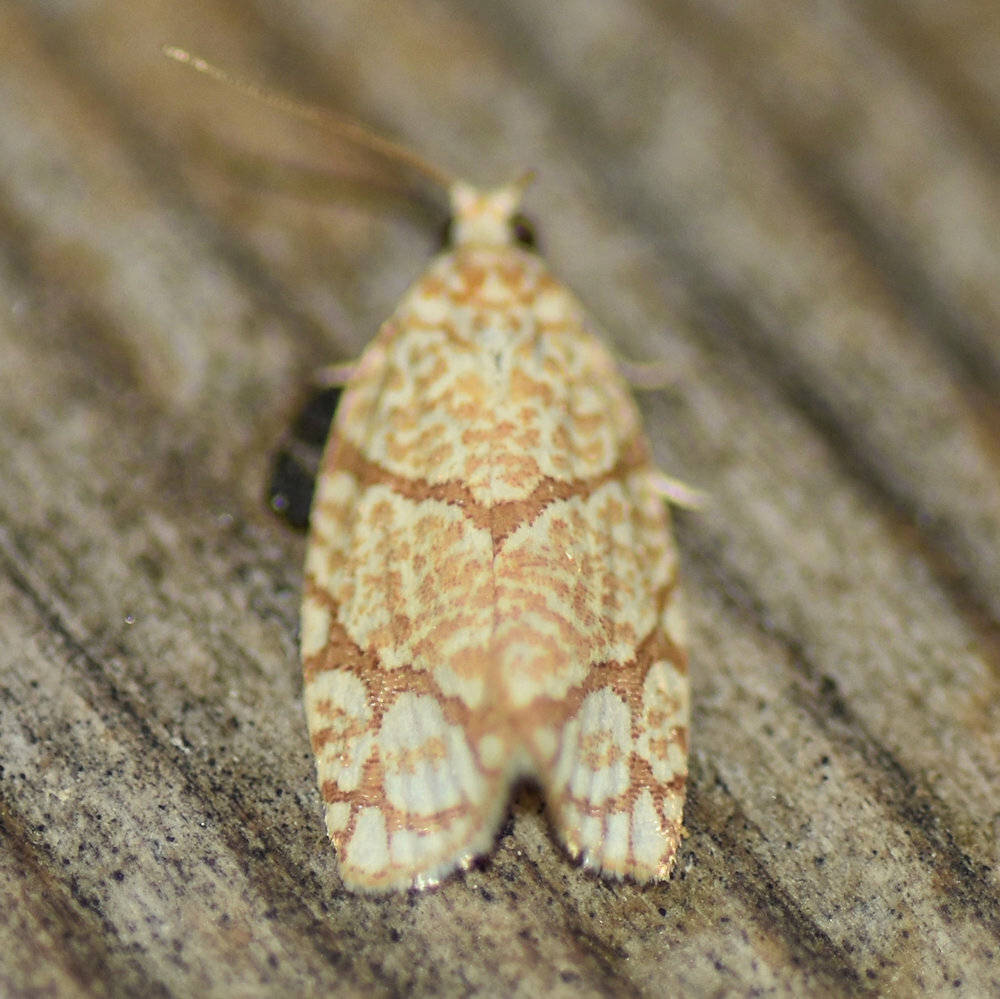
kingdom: Animalia
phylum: Arthropoda
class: Insecta
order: Lepidoptera
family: Tortricidae
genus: Argyrotaenia
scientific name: Argyrotaenia quercifoliana
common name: Yellow-winged oak leafroller moth
